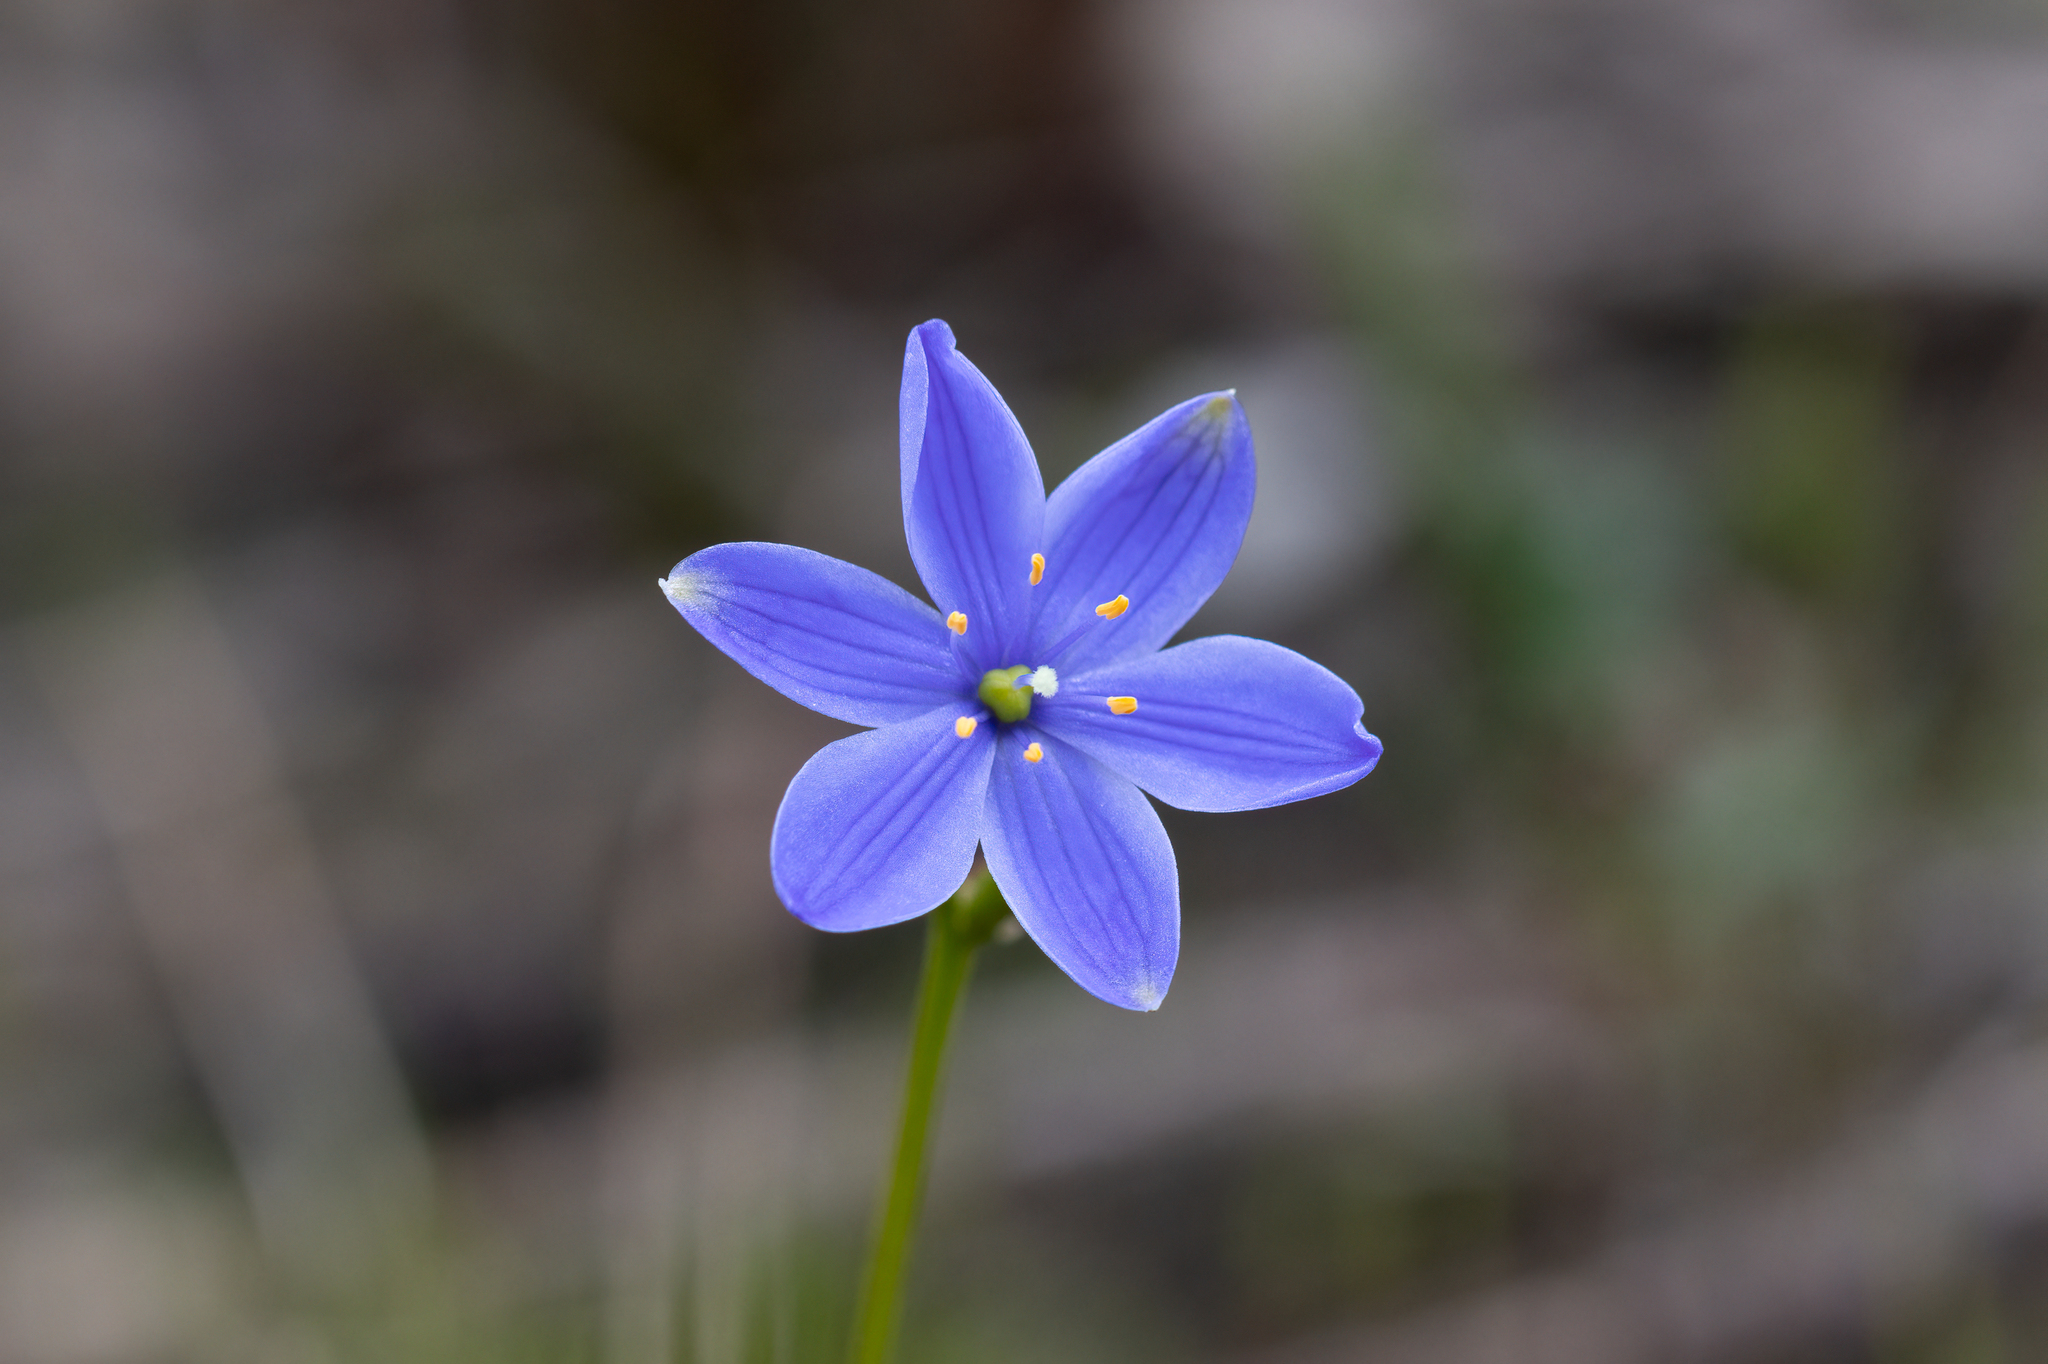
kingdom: Plantae
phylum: Tracheophyta
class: Liliopsida
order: Asparagales
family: Asphodelaceae
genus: Chamaescilla
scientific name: Chamaescilla corymbosa
